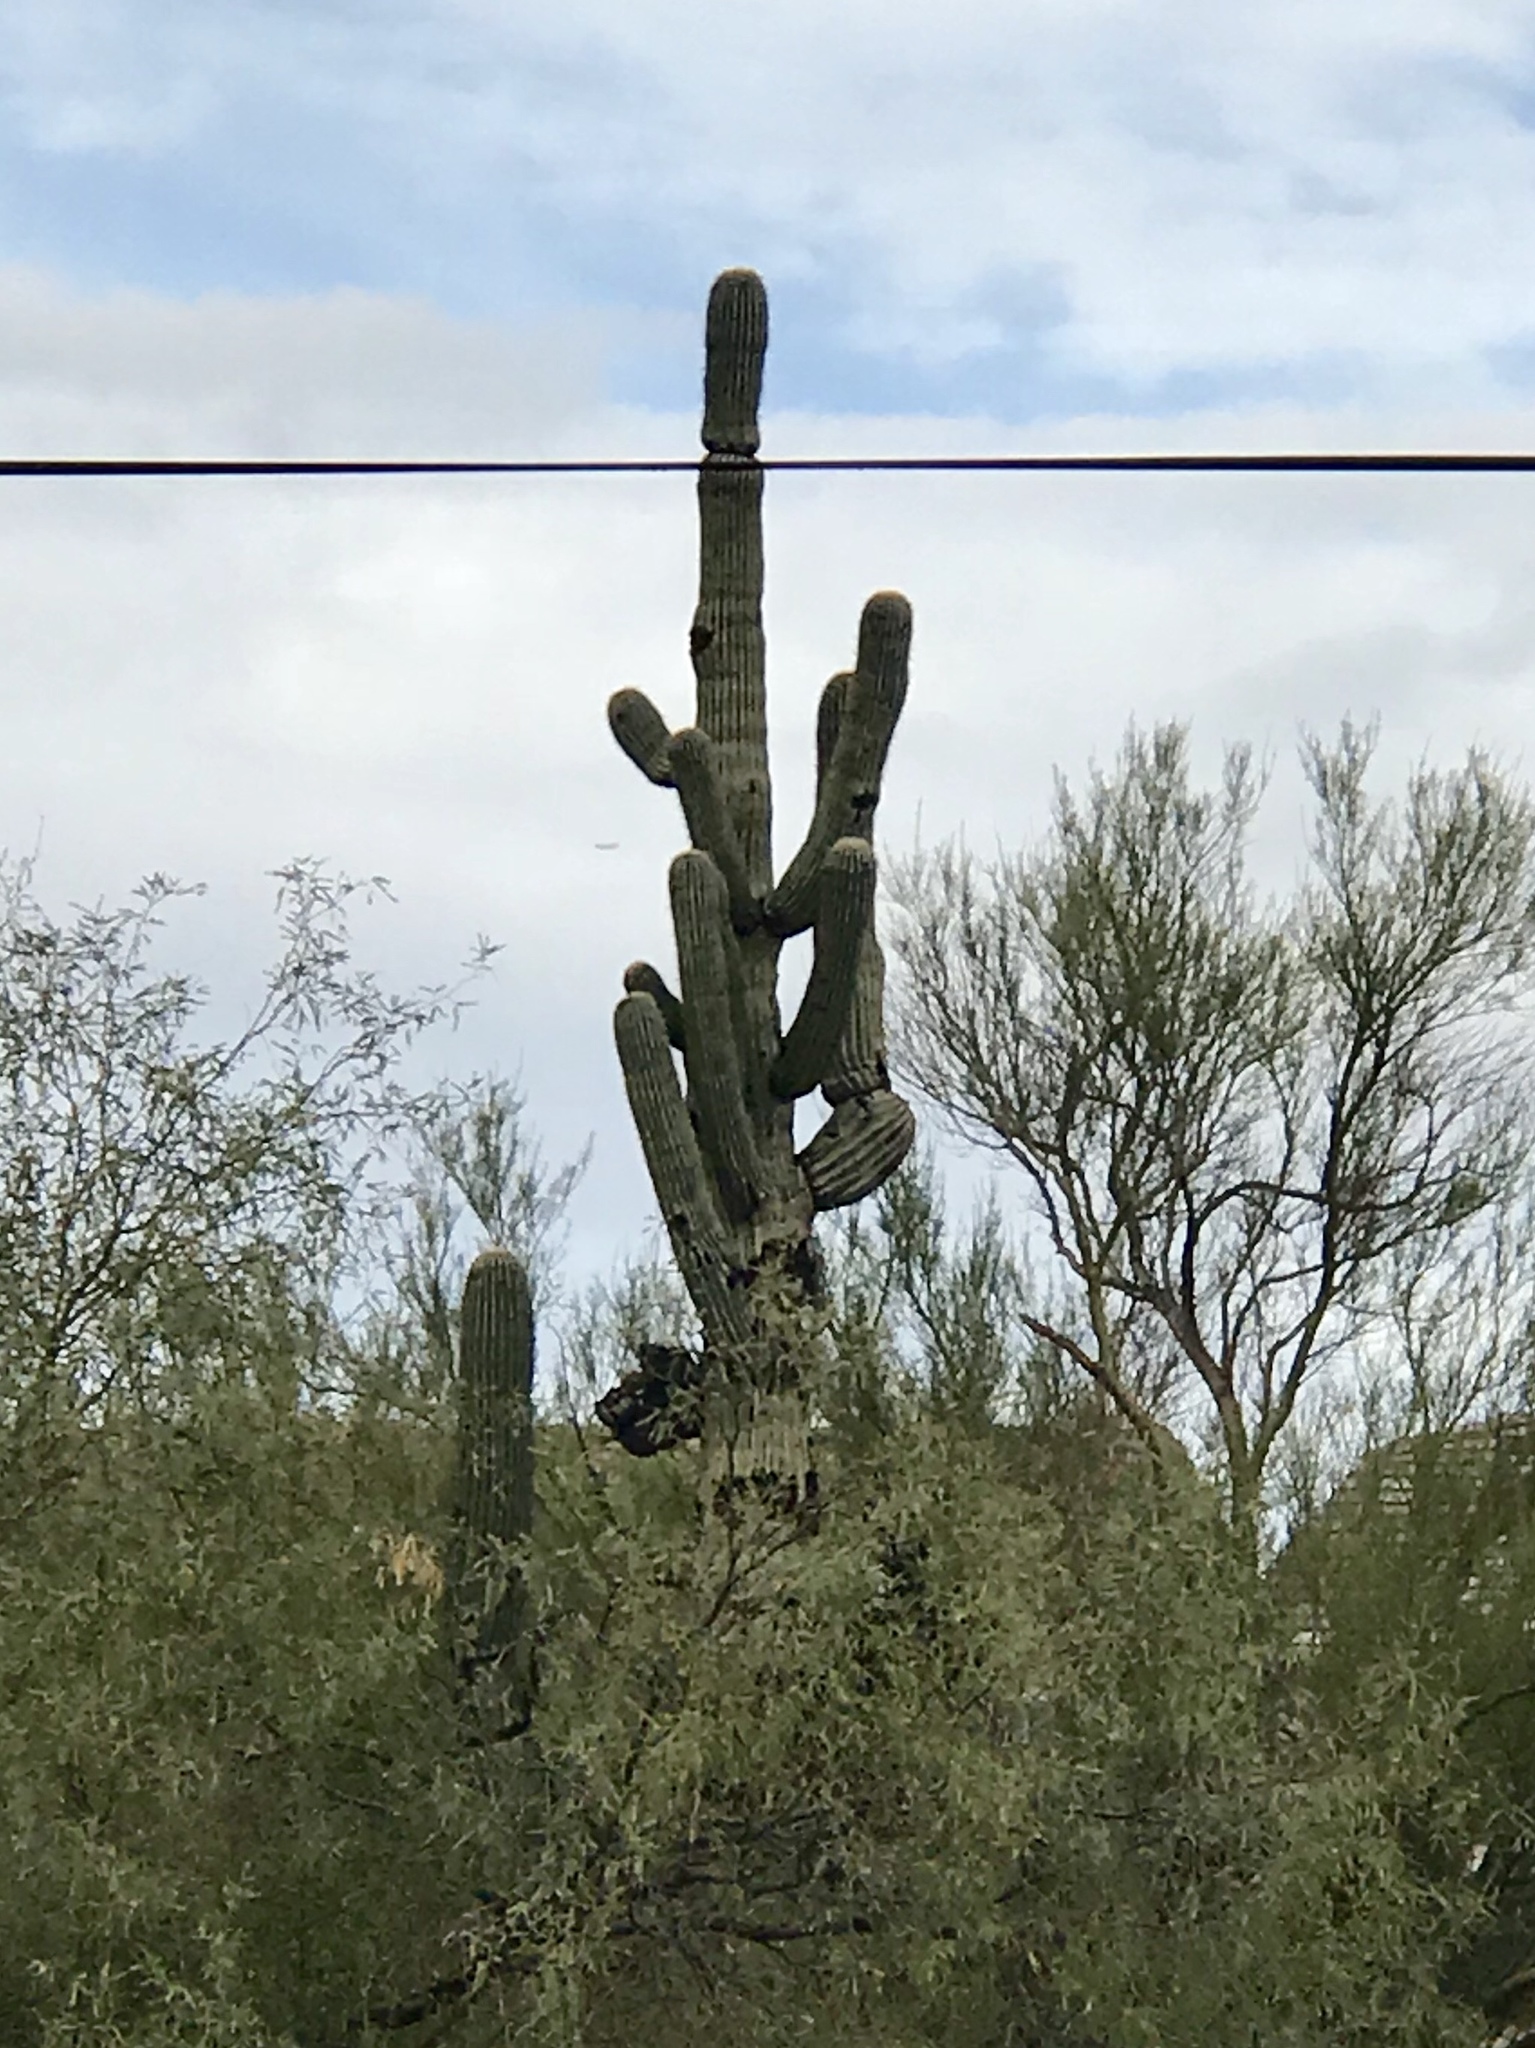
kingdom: Plantae
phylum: Tracheophyta
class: Magnoliopsida
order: Caryophyllales
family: Cactaceae
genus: Carnegiea
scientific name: Carnegiea gigantea
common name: Saguaro
